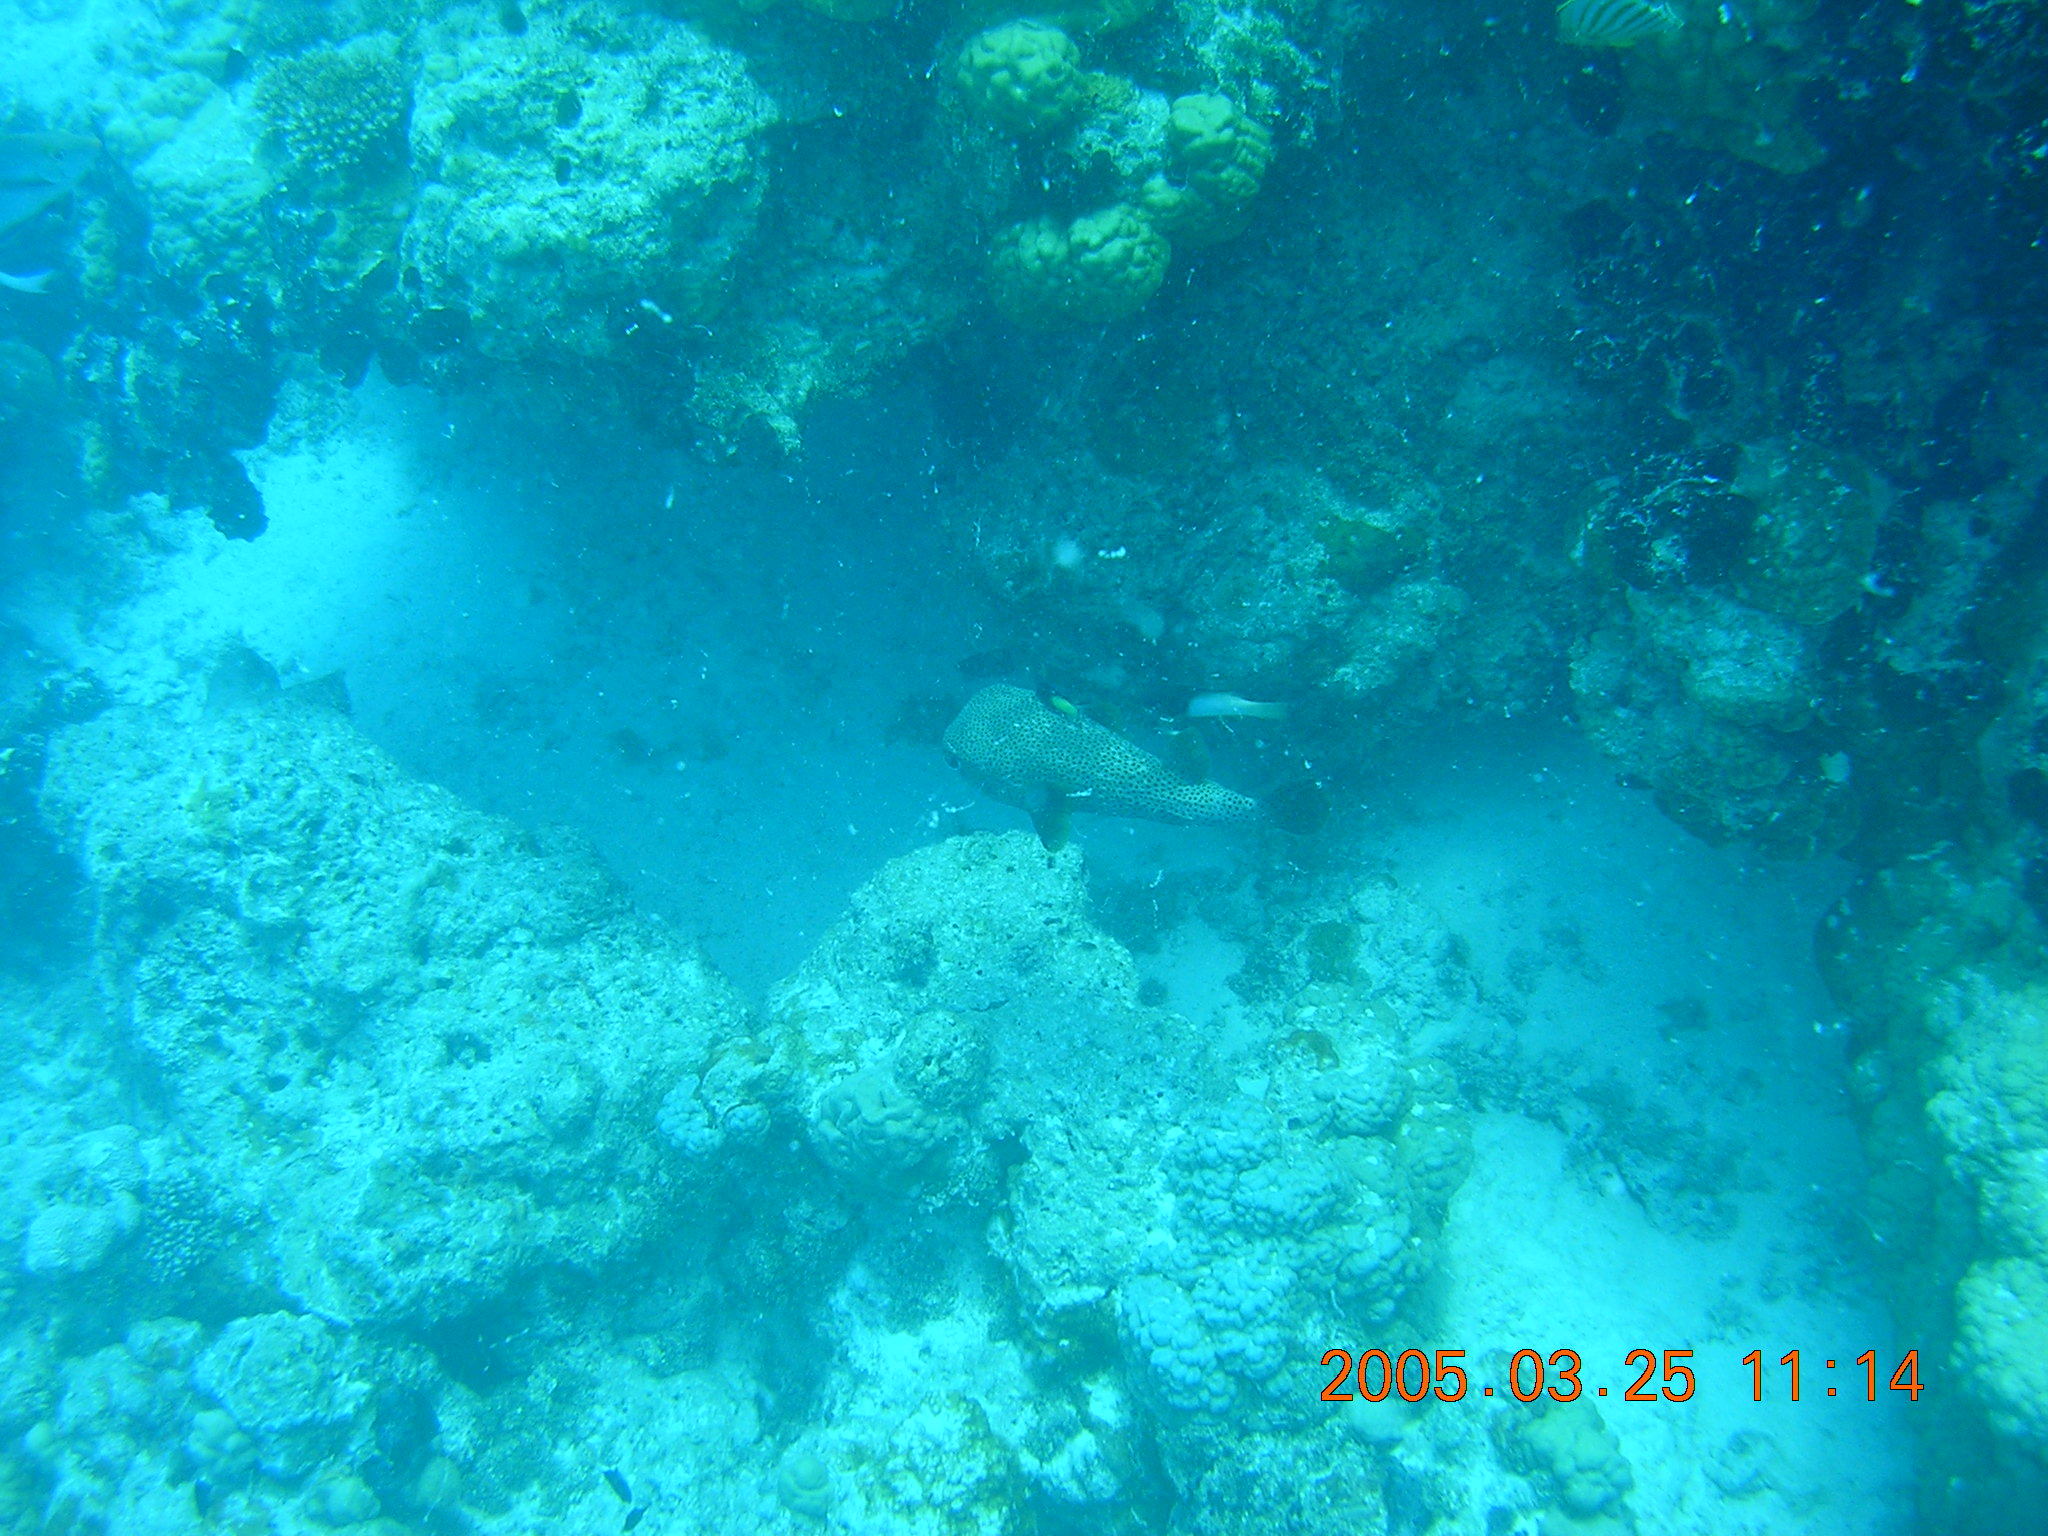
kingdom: Animalia
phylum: Chordata
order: Tetraodontiformes
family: Diodontidae
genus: Diodon
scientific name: Diodon hystrix
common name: Giant porcupinefish
